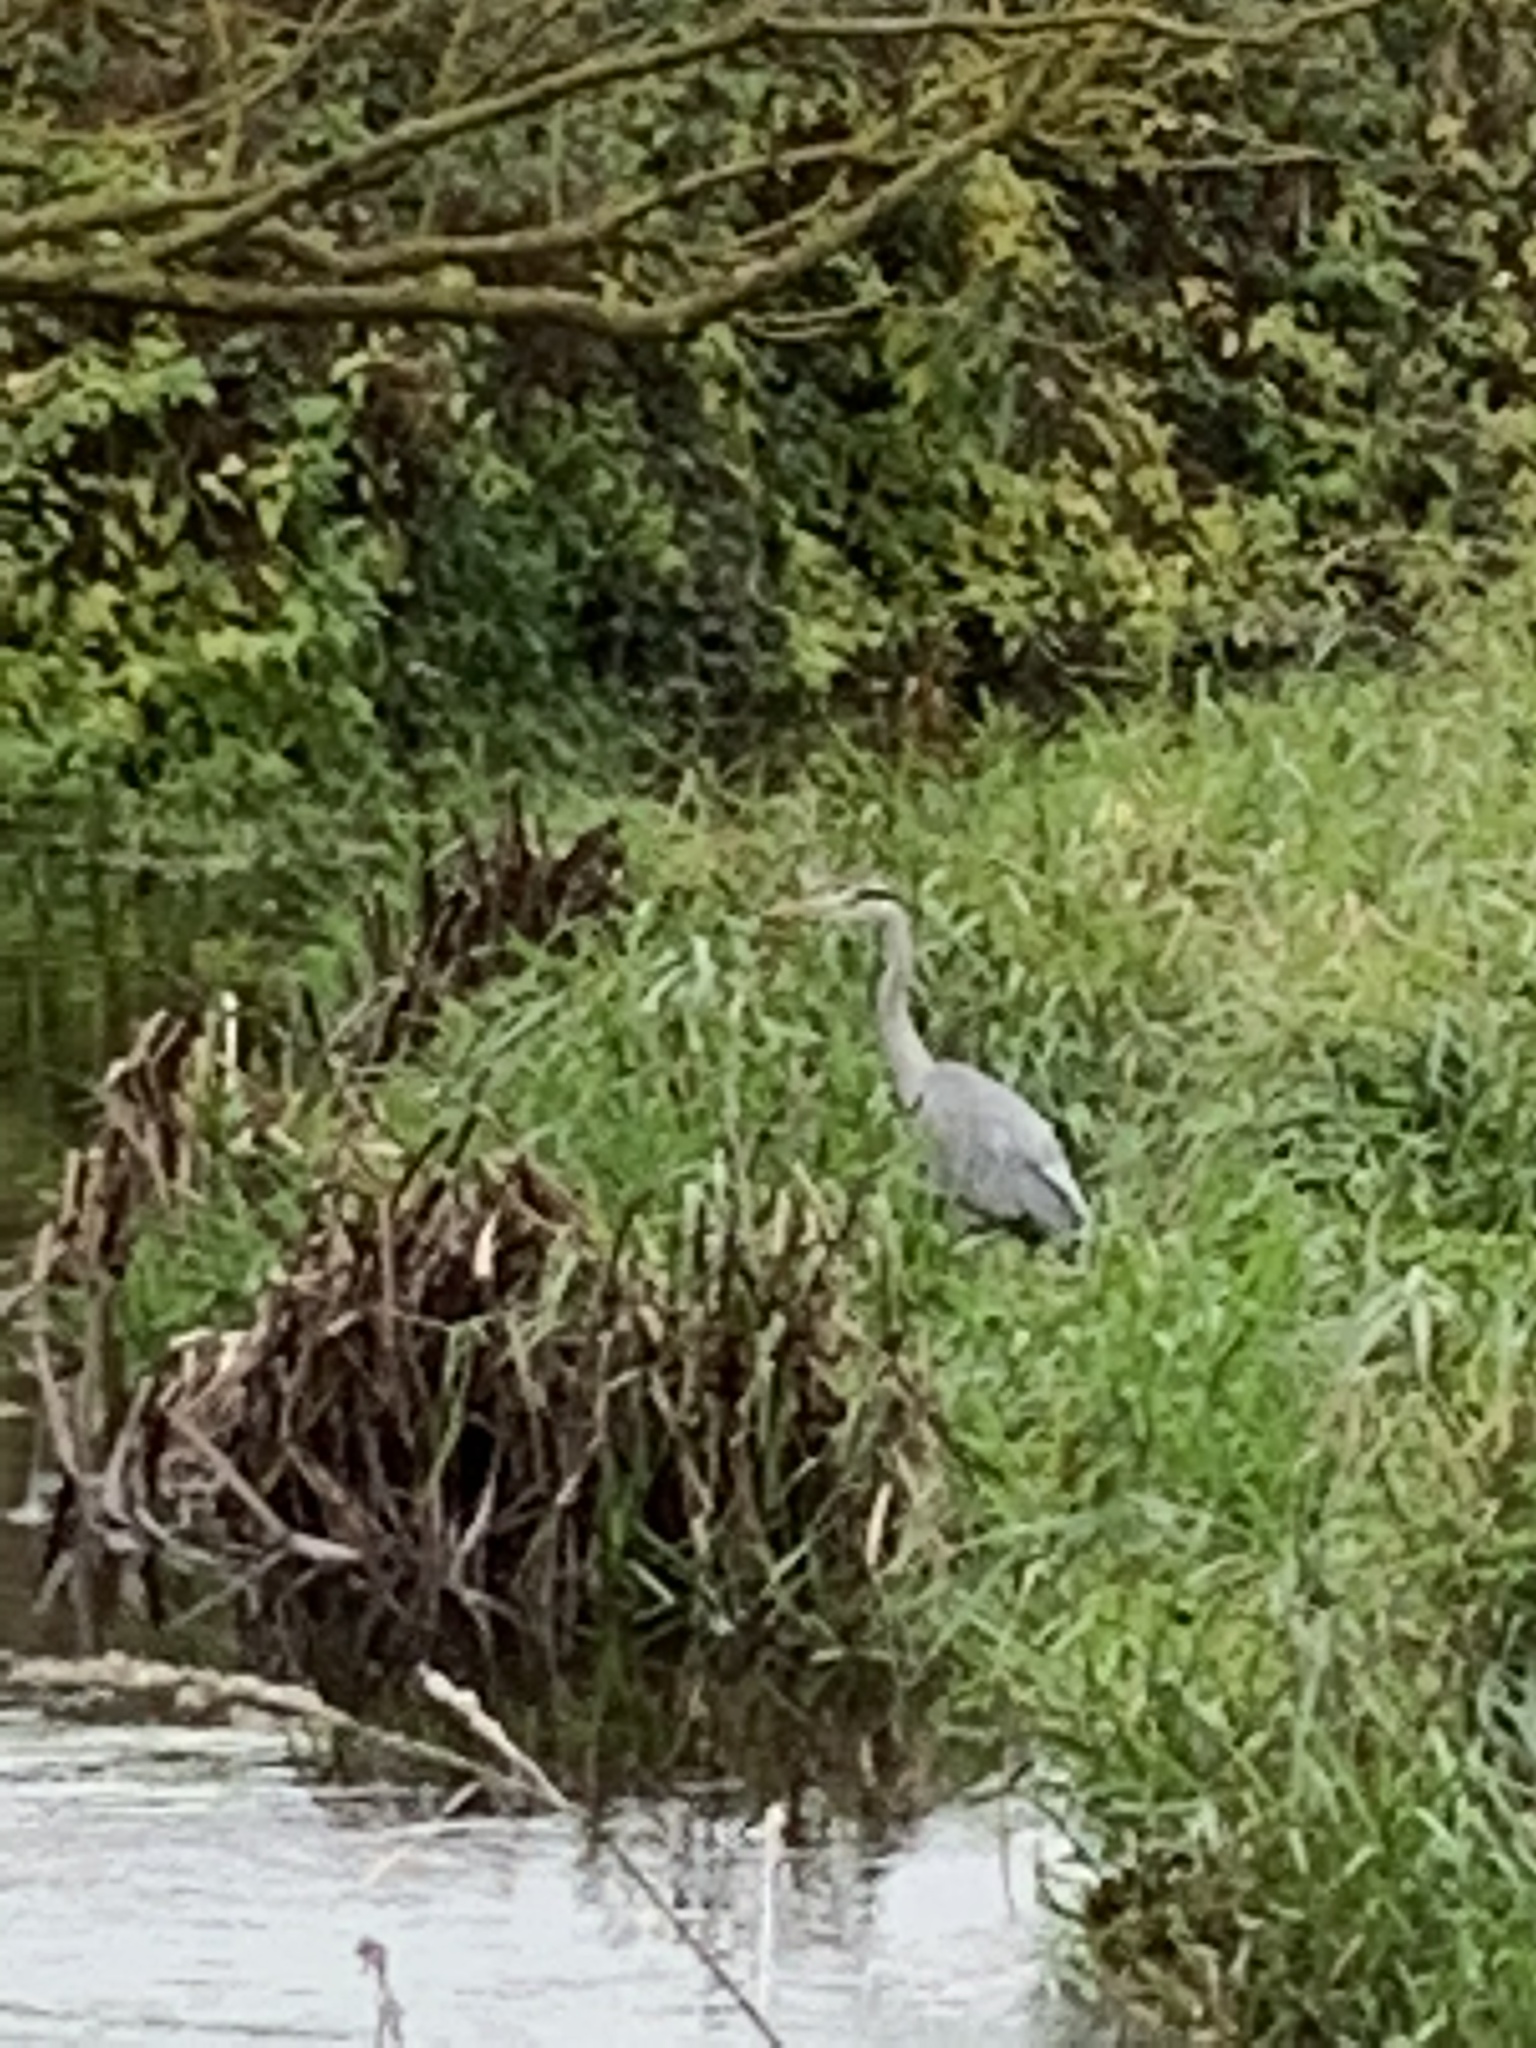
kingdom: Animalia
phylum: Chordata
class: Aves
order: Pelecaniformes
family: Ardeidae
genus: Ardea
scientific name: Ardea cinerea
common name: Grey heron
